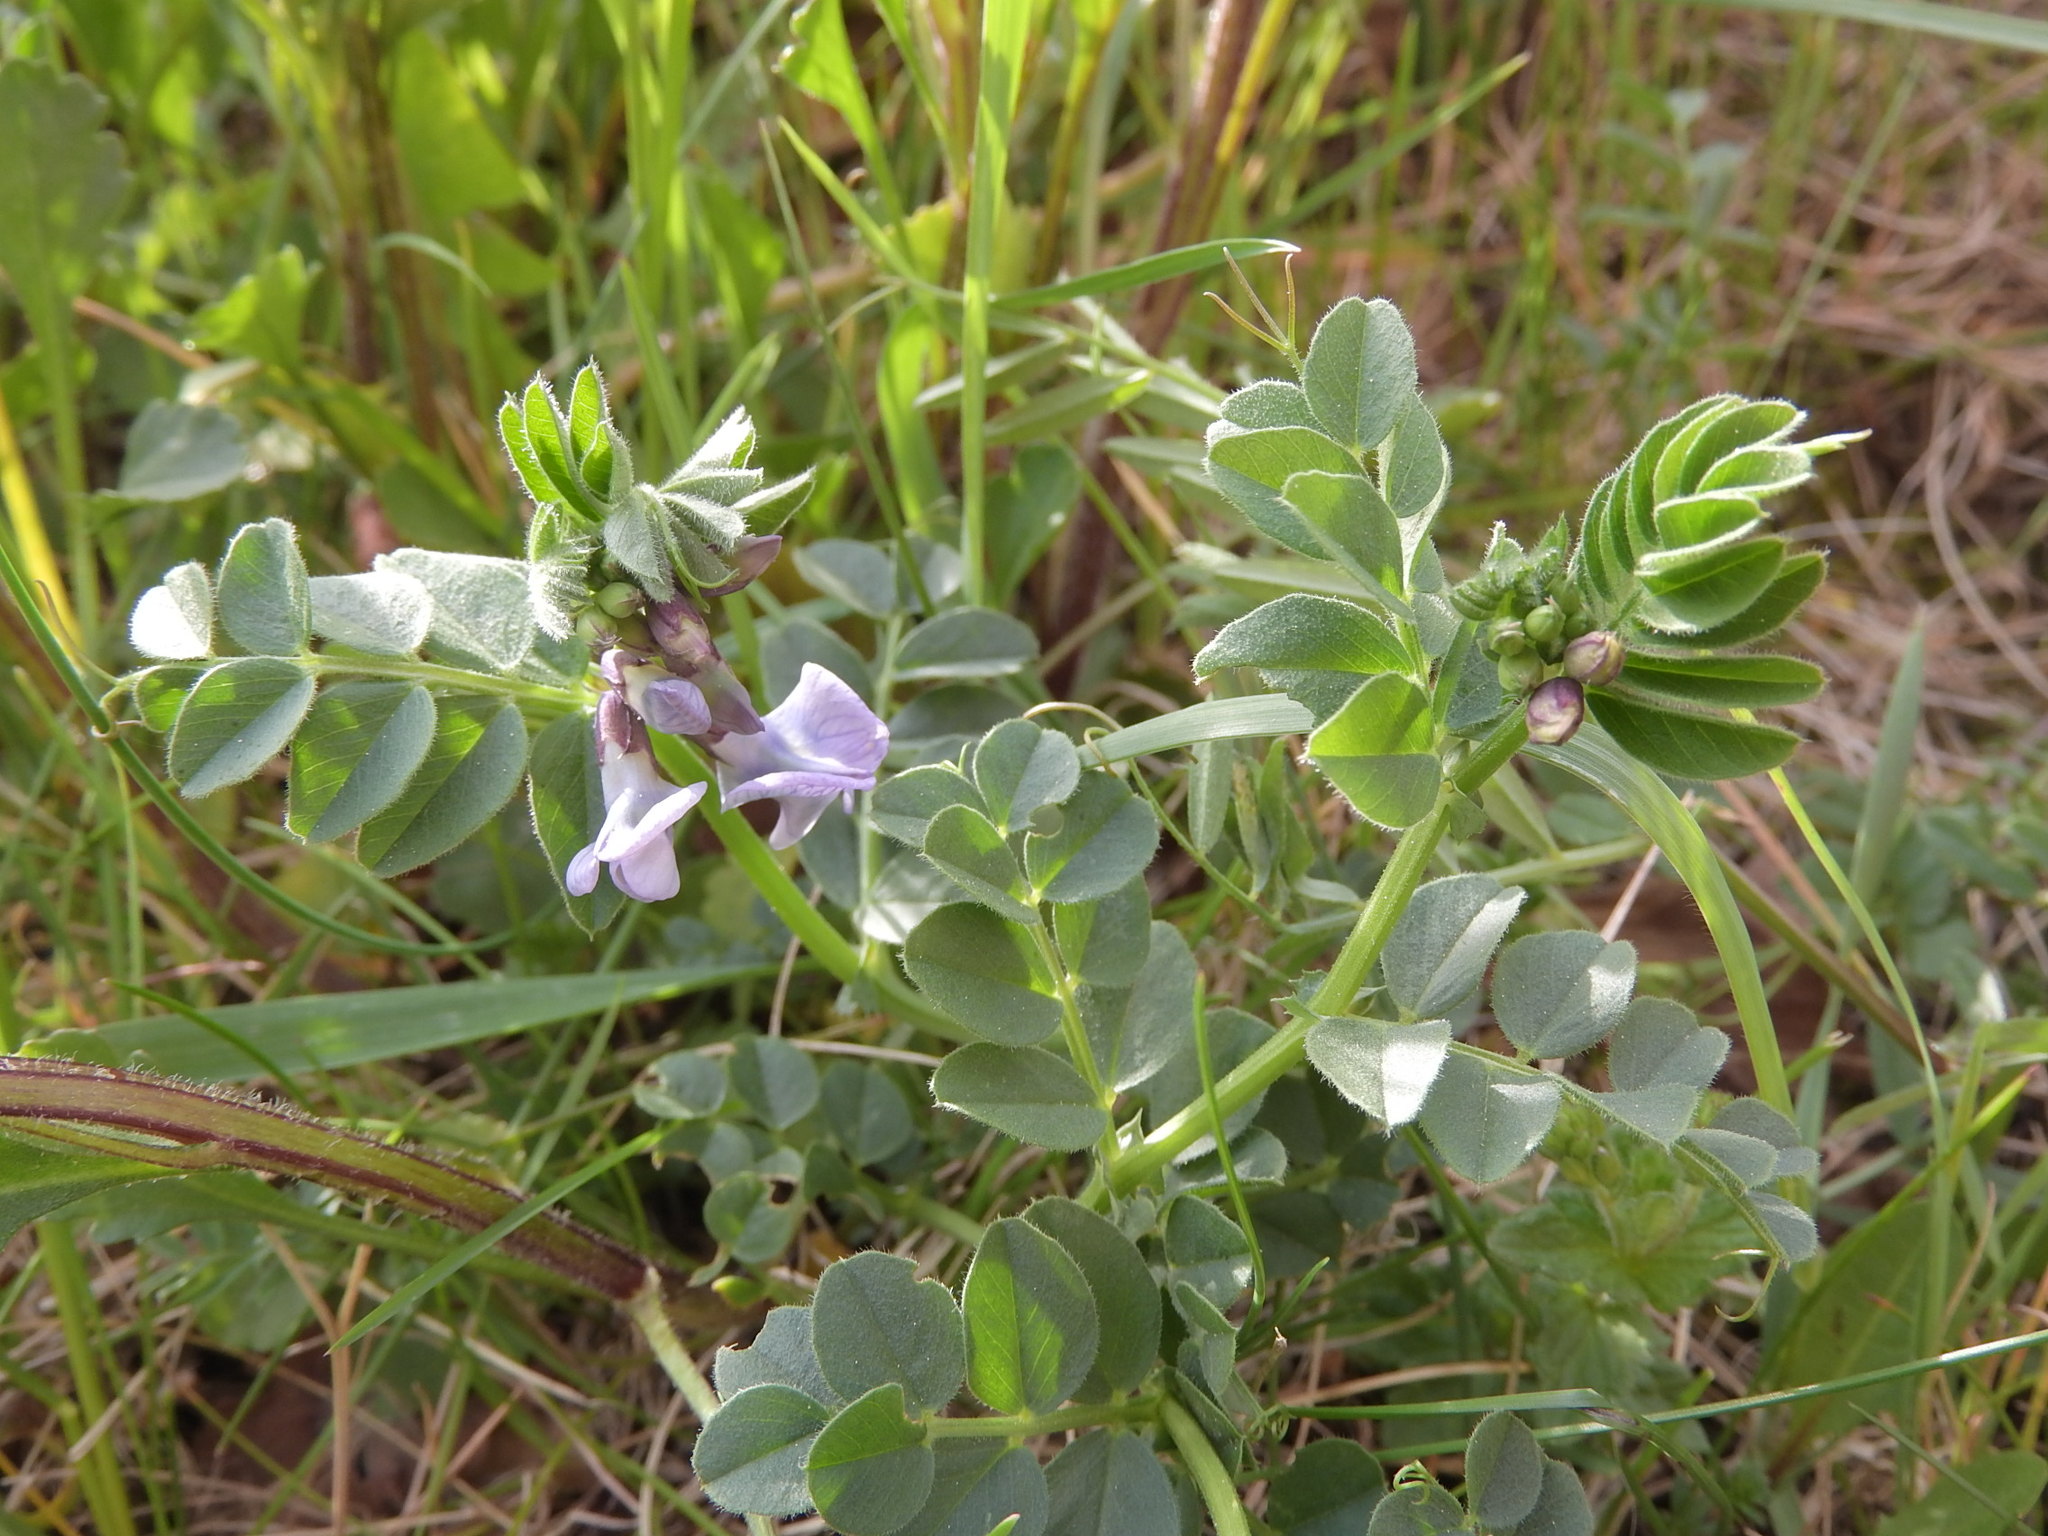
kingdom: Plantae
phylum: Tracheophyta
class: Magnoliopsida
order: Fabales
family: Fabaceae
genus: Vicia
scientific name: Vicia sepium
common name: Bush vetch
